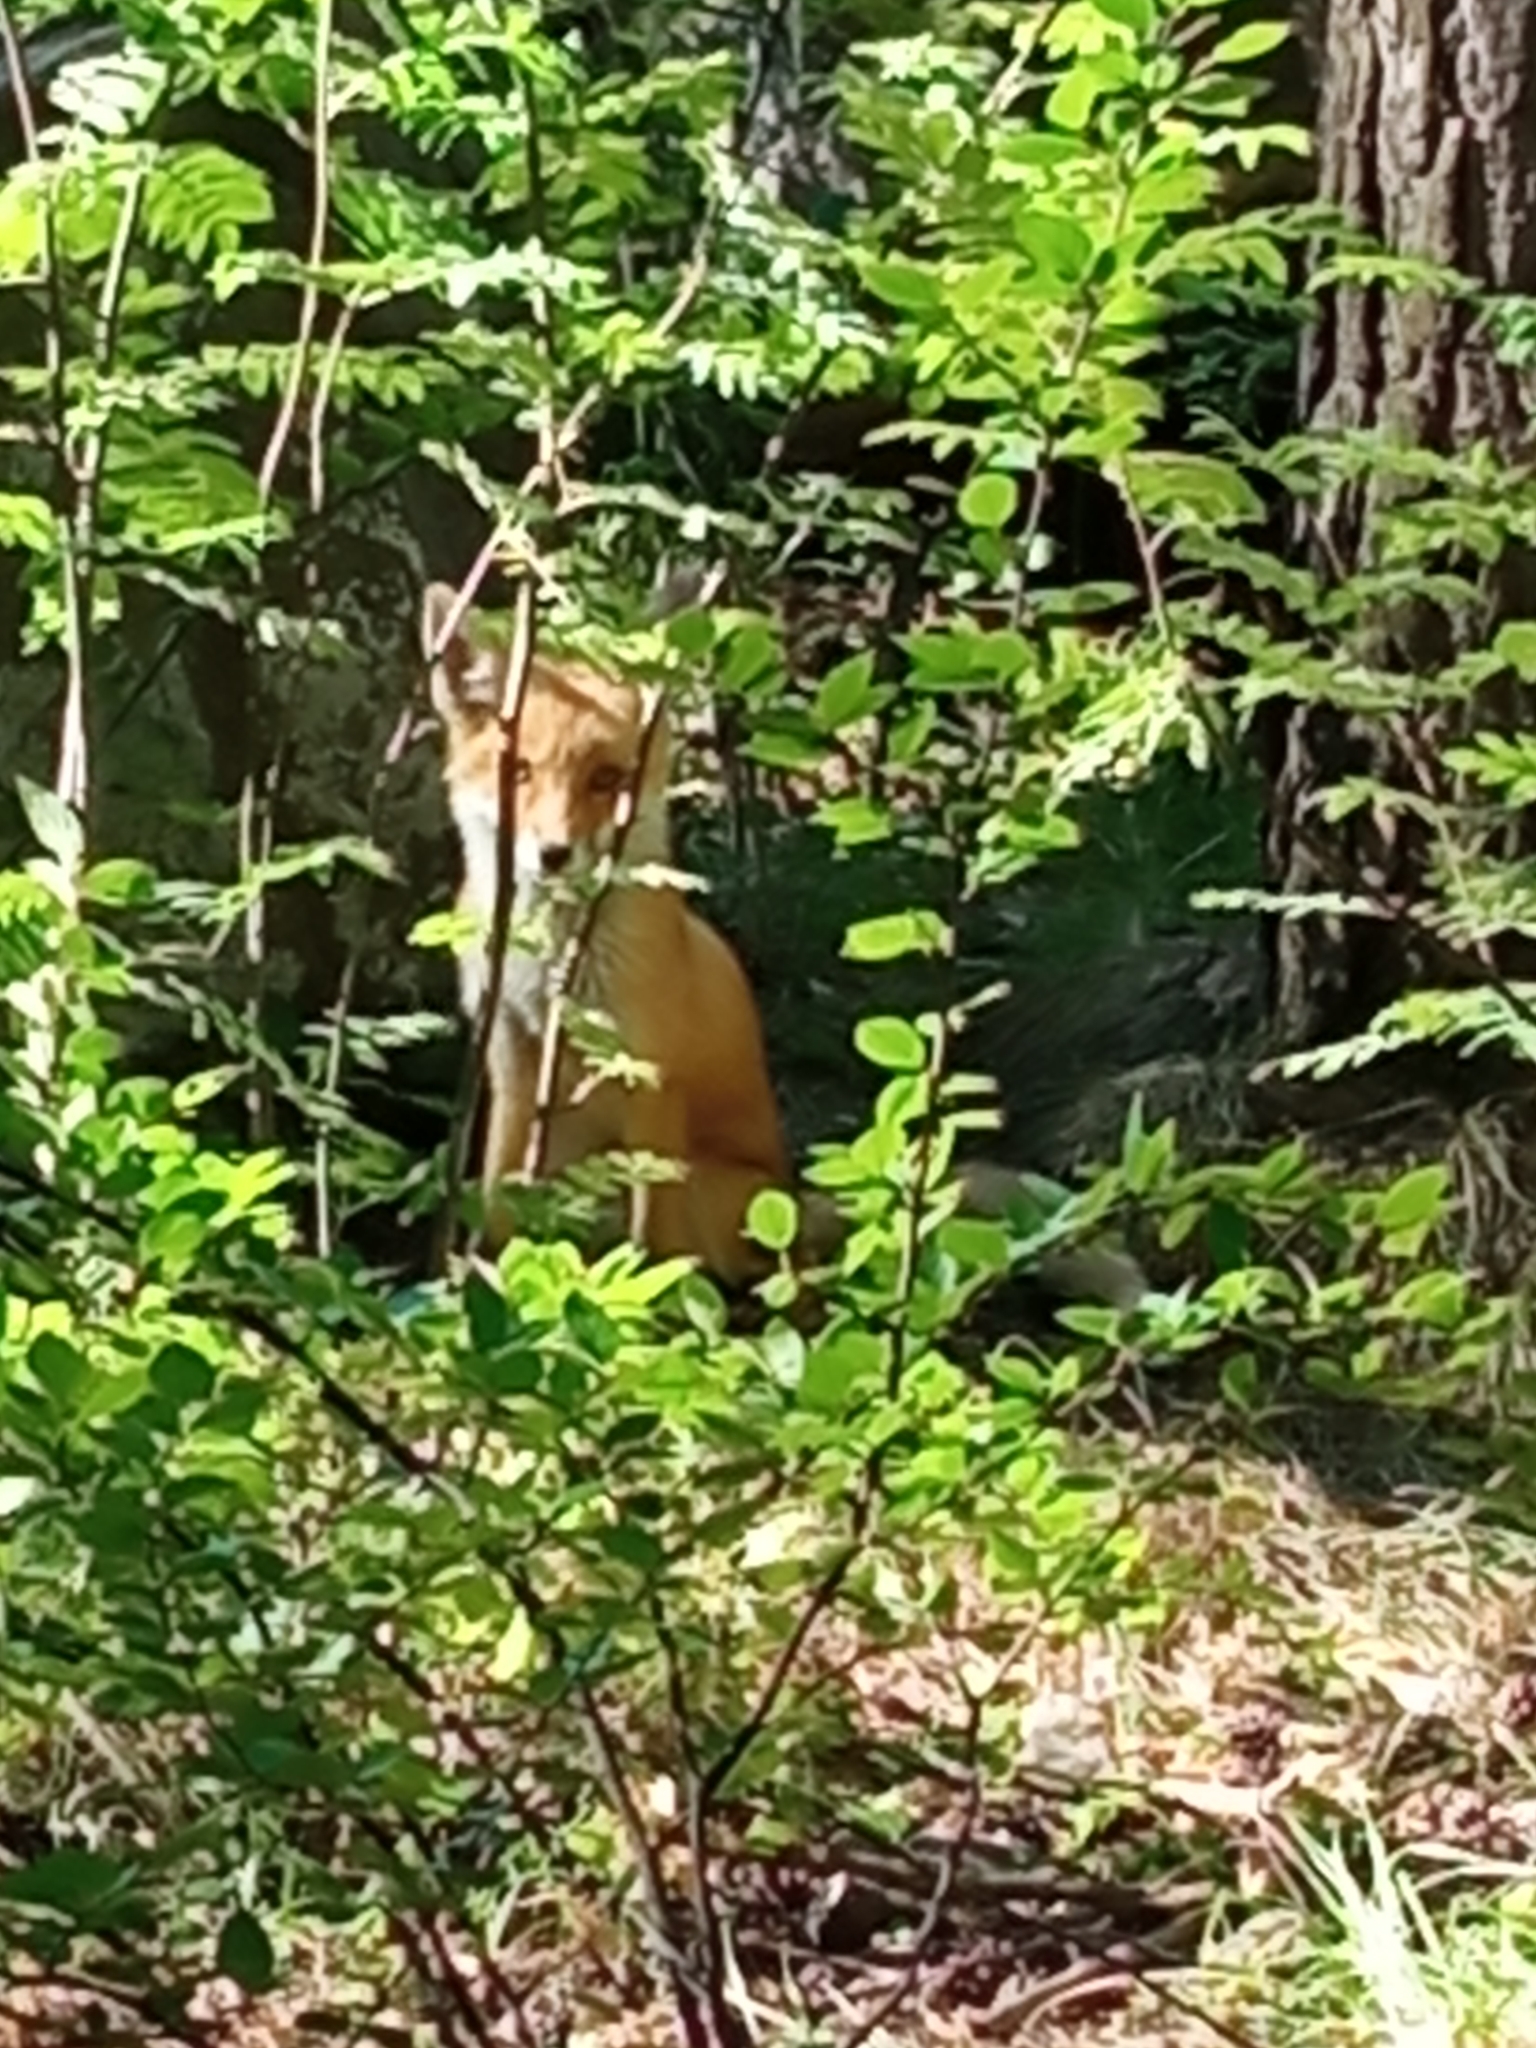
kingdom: Animalia
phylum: Chordata
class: Mammalia
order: Carnivora
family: Canidae
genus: Vulpes
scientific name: Vulpes vulpes
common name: Red fox
